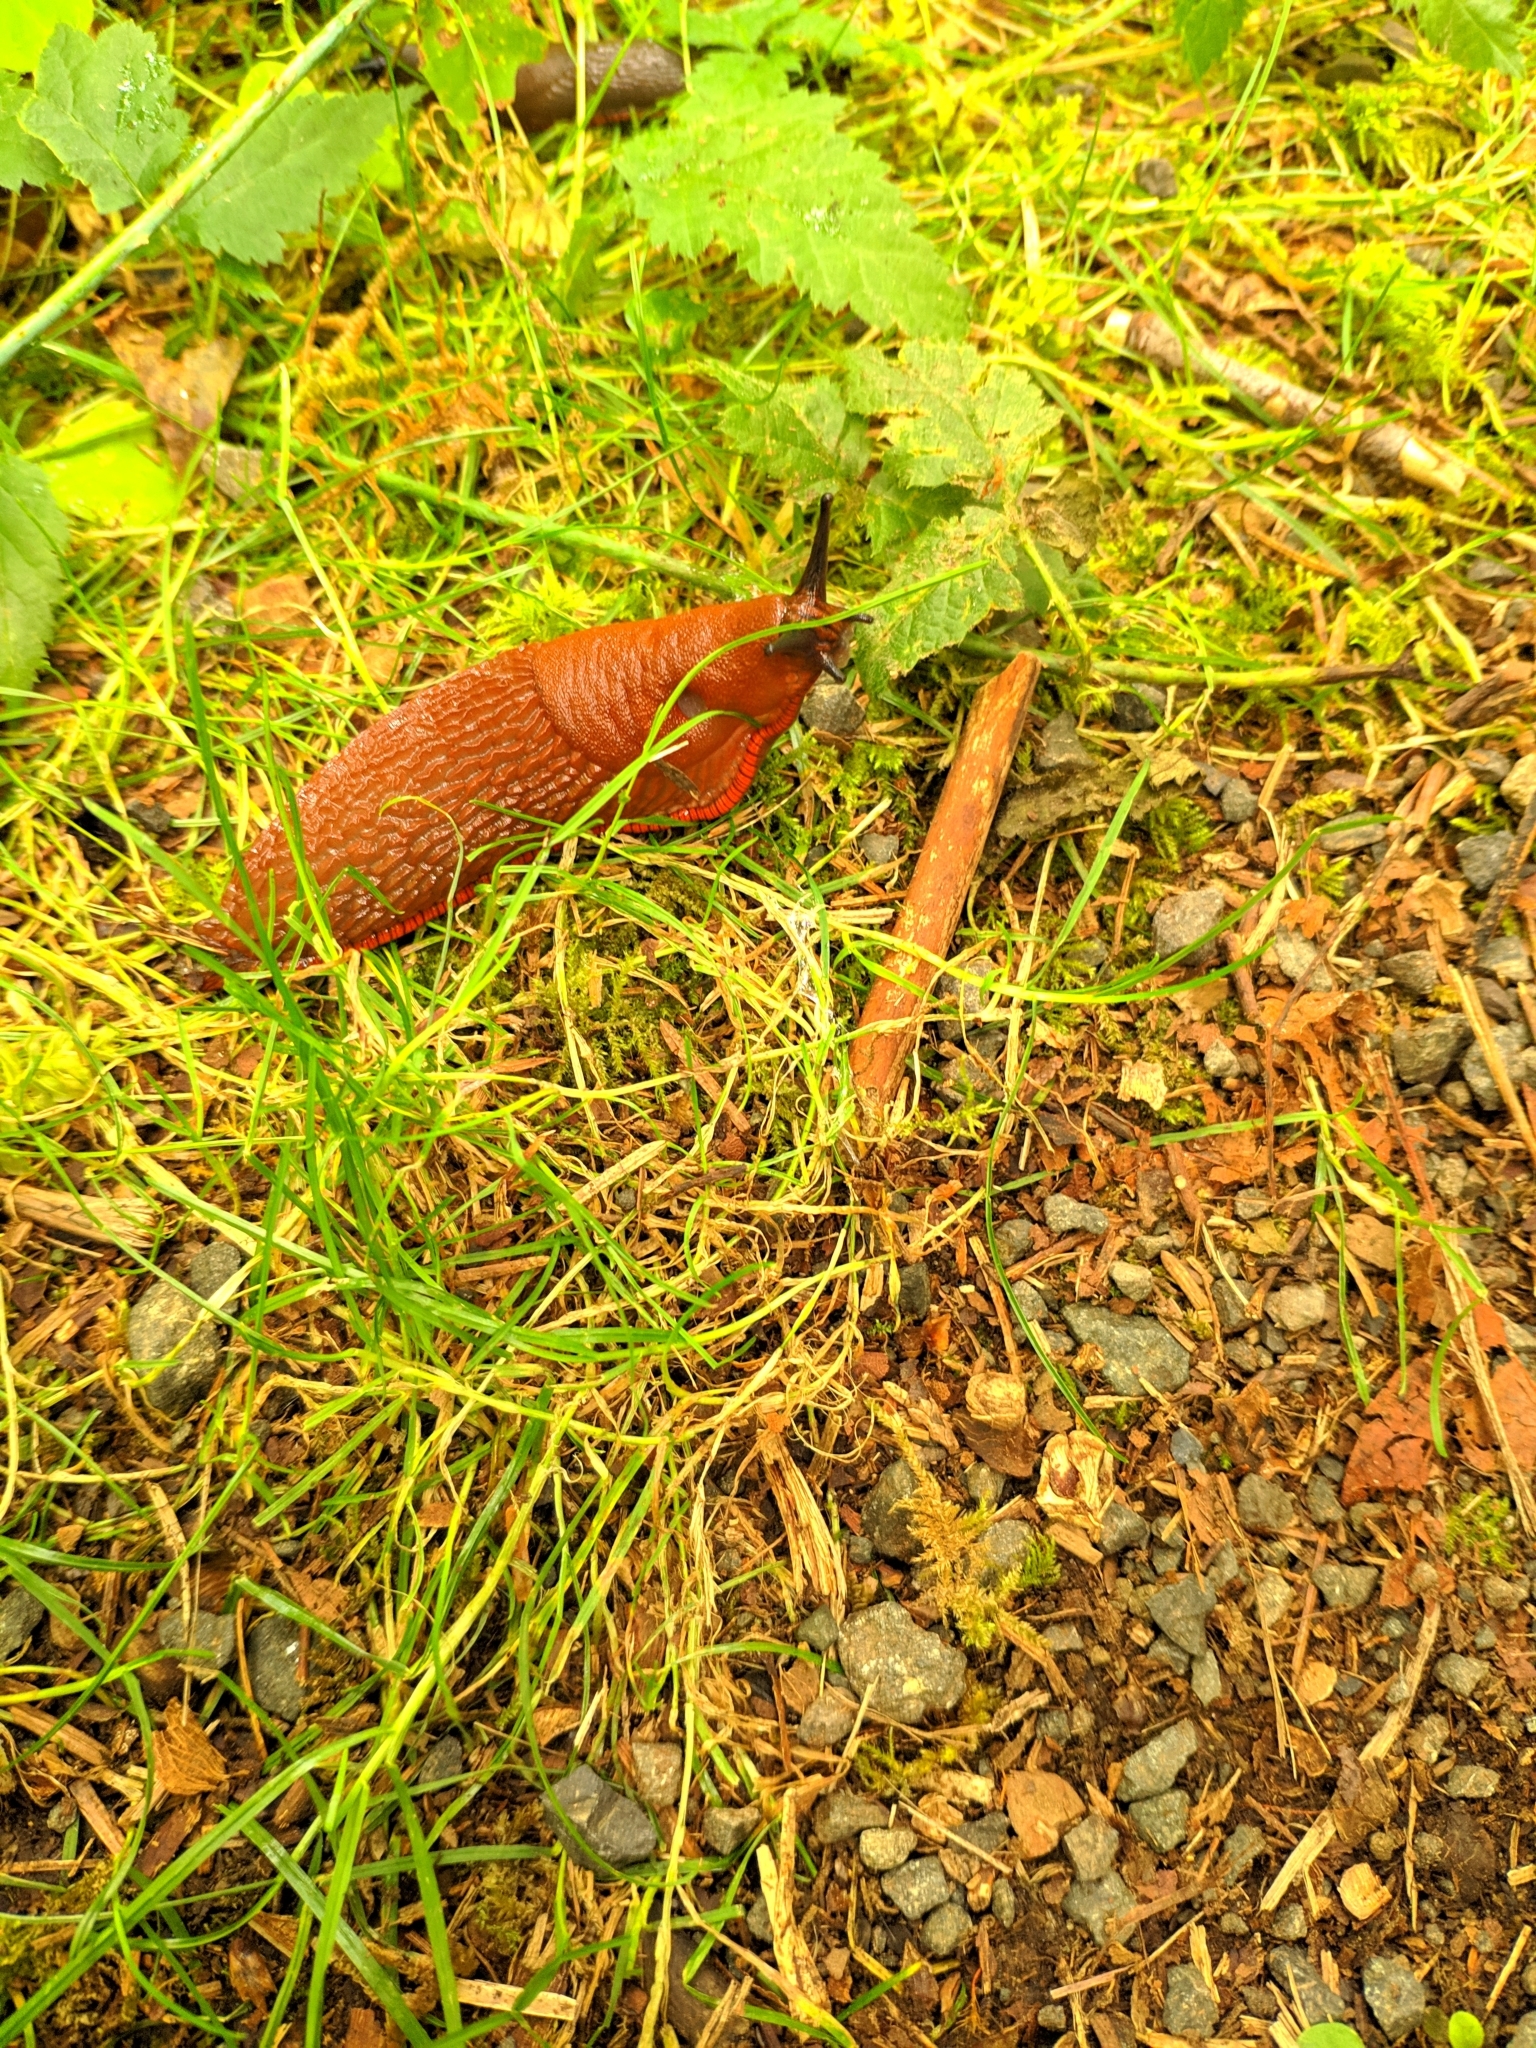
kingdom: Animalia
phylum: Mollusca
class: Gastropoda
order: Stylommatophora
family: Arionidae
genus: Arion
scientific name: Arion rufus
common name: Chocolate arion
